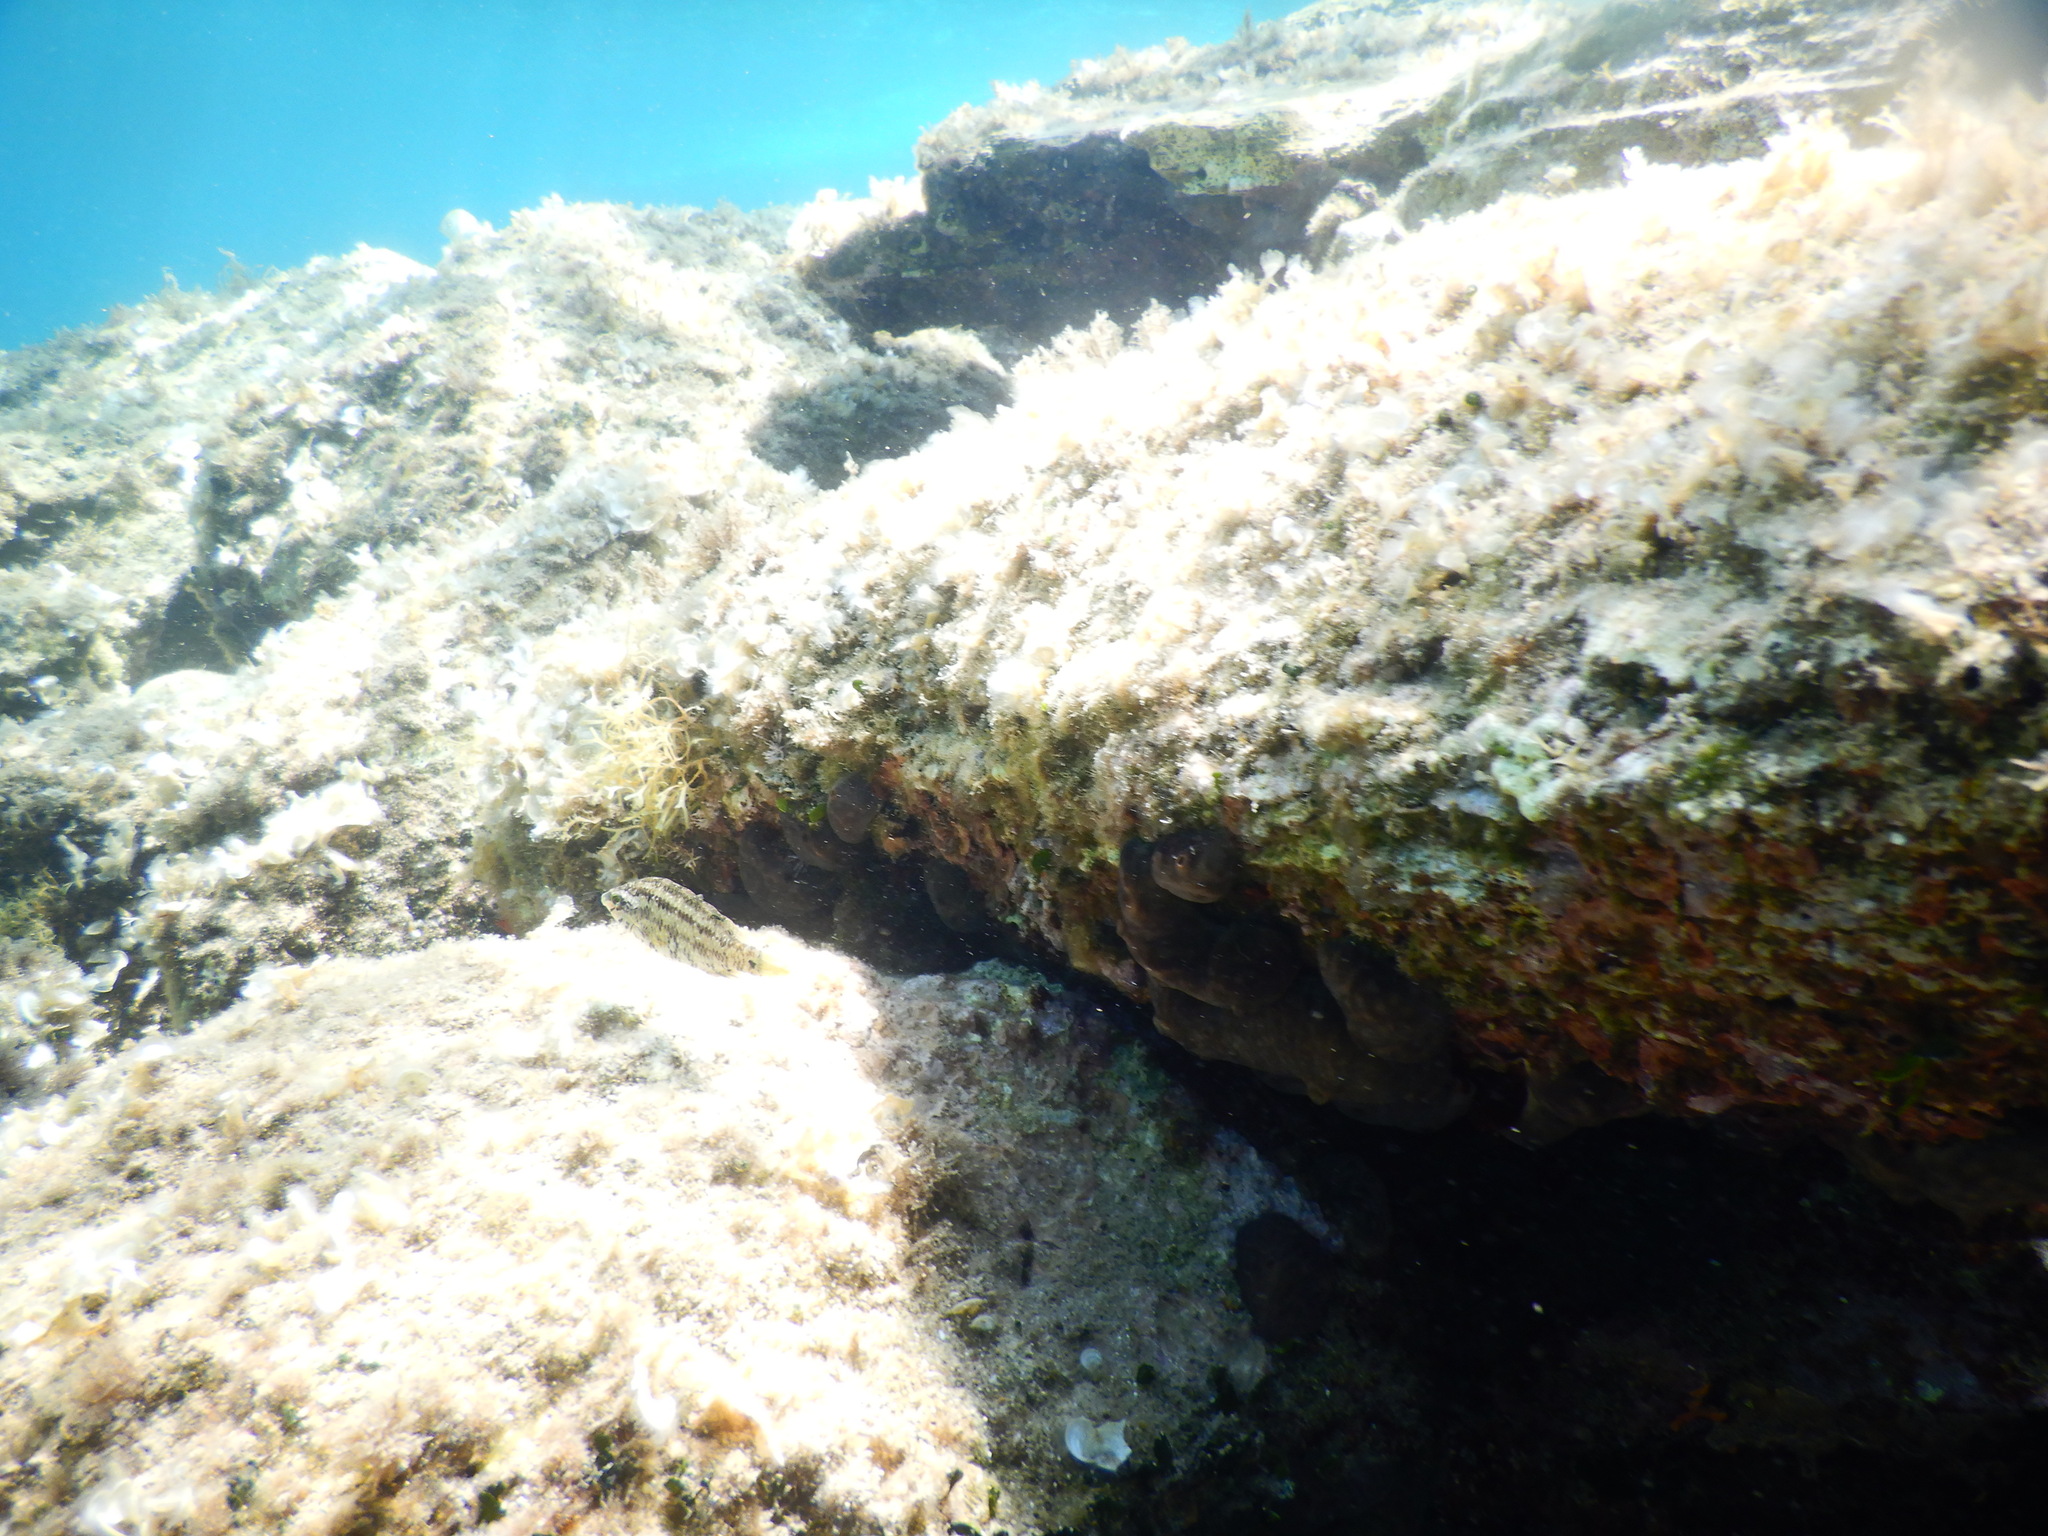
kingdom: Animalia
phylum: Chordata
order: Perciformes
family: Labridae
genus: Symphodus
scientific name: Symphodus roissali
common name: Five-spotted wrasse
